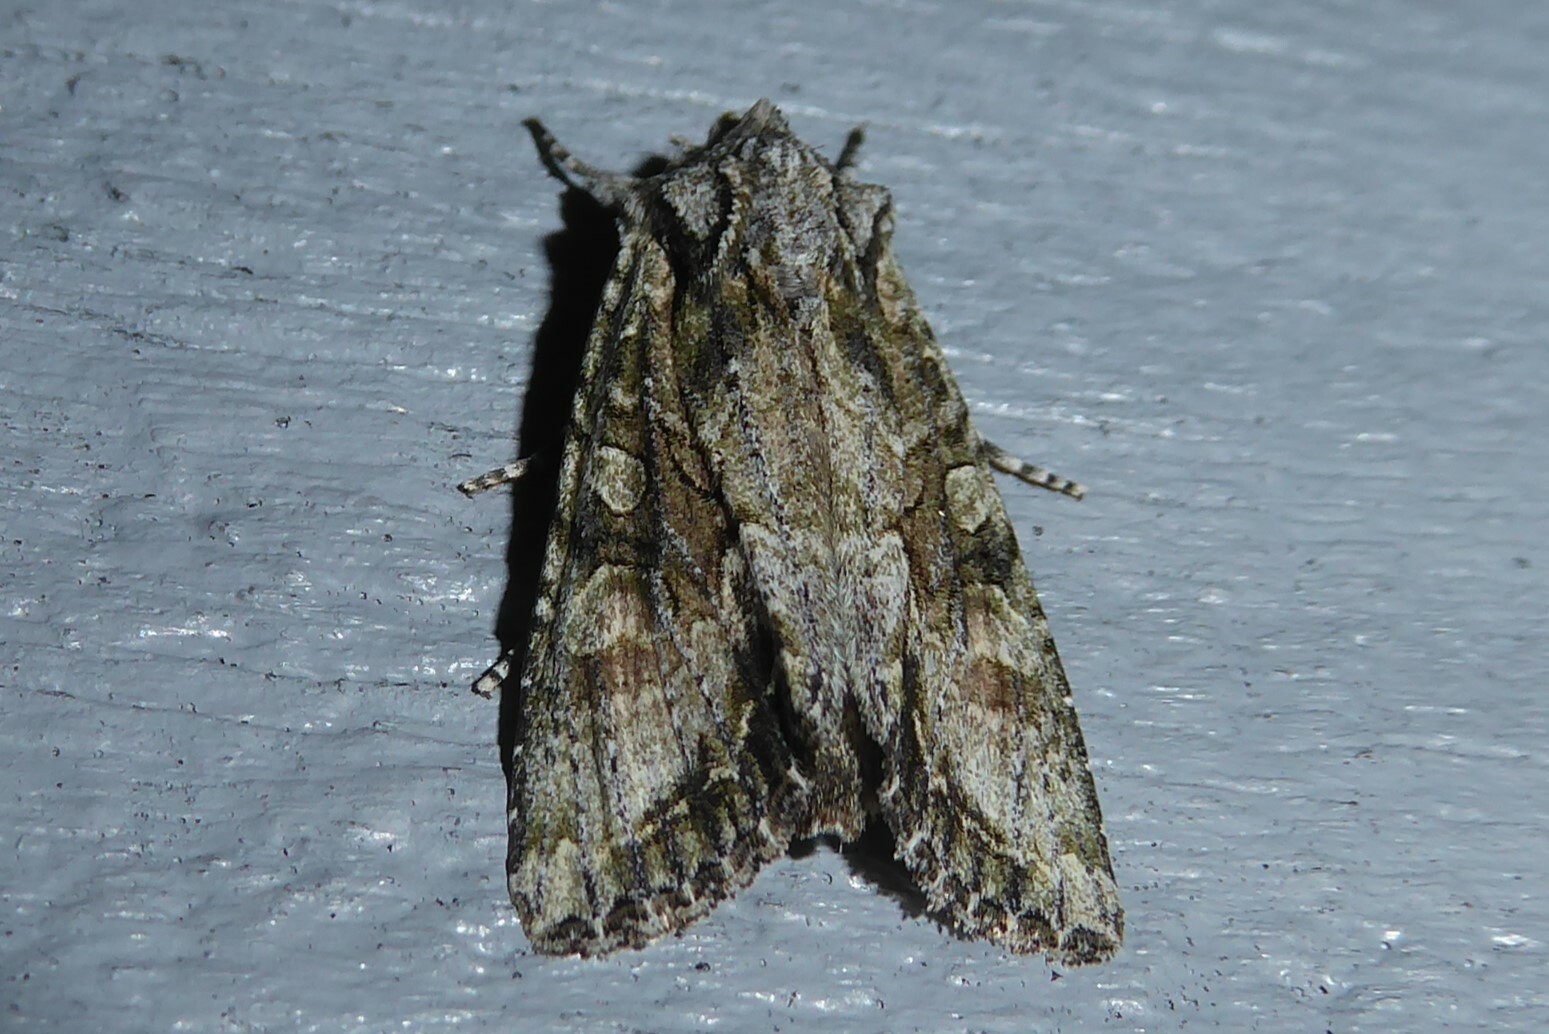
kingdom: Animalia
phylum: Arthropoda
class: Insecta
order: Lepidoptera
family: Noctuidae
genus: Ichneutica
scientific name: Ichneutica mutans
